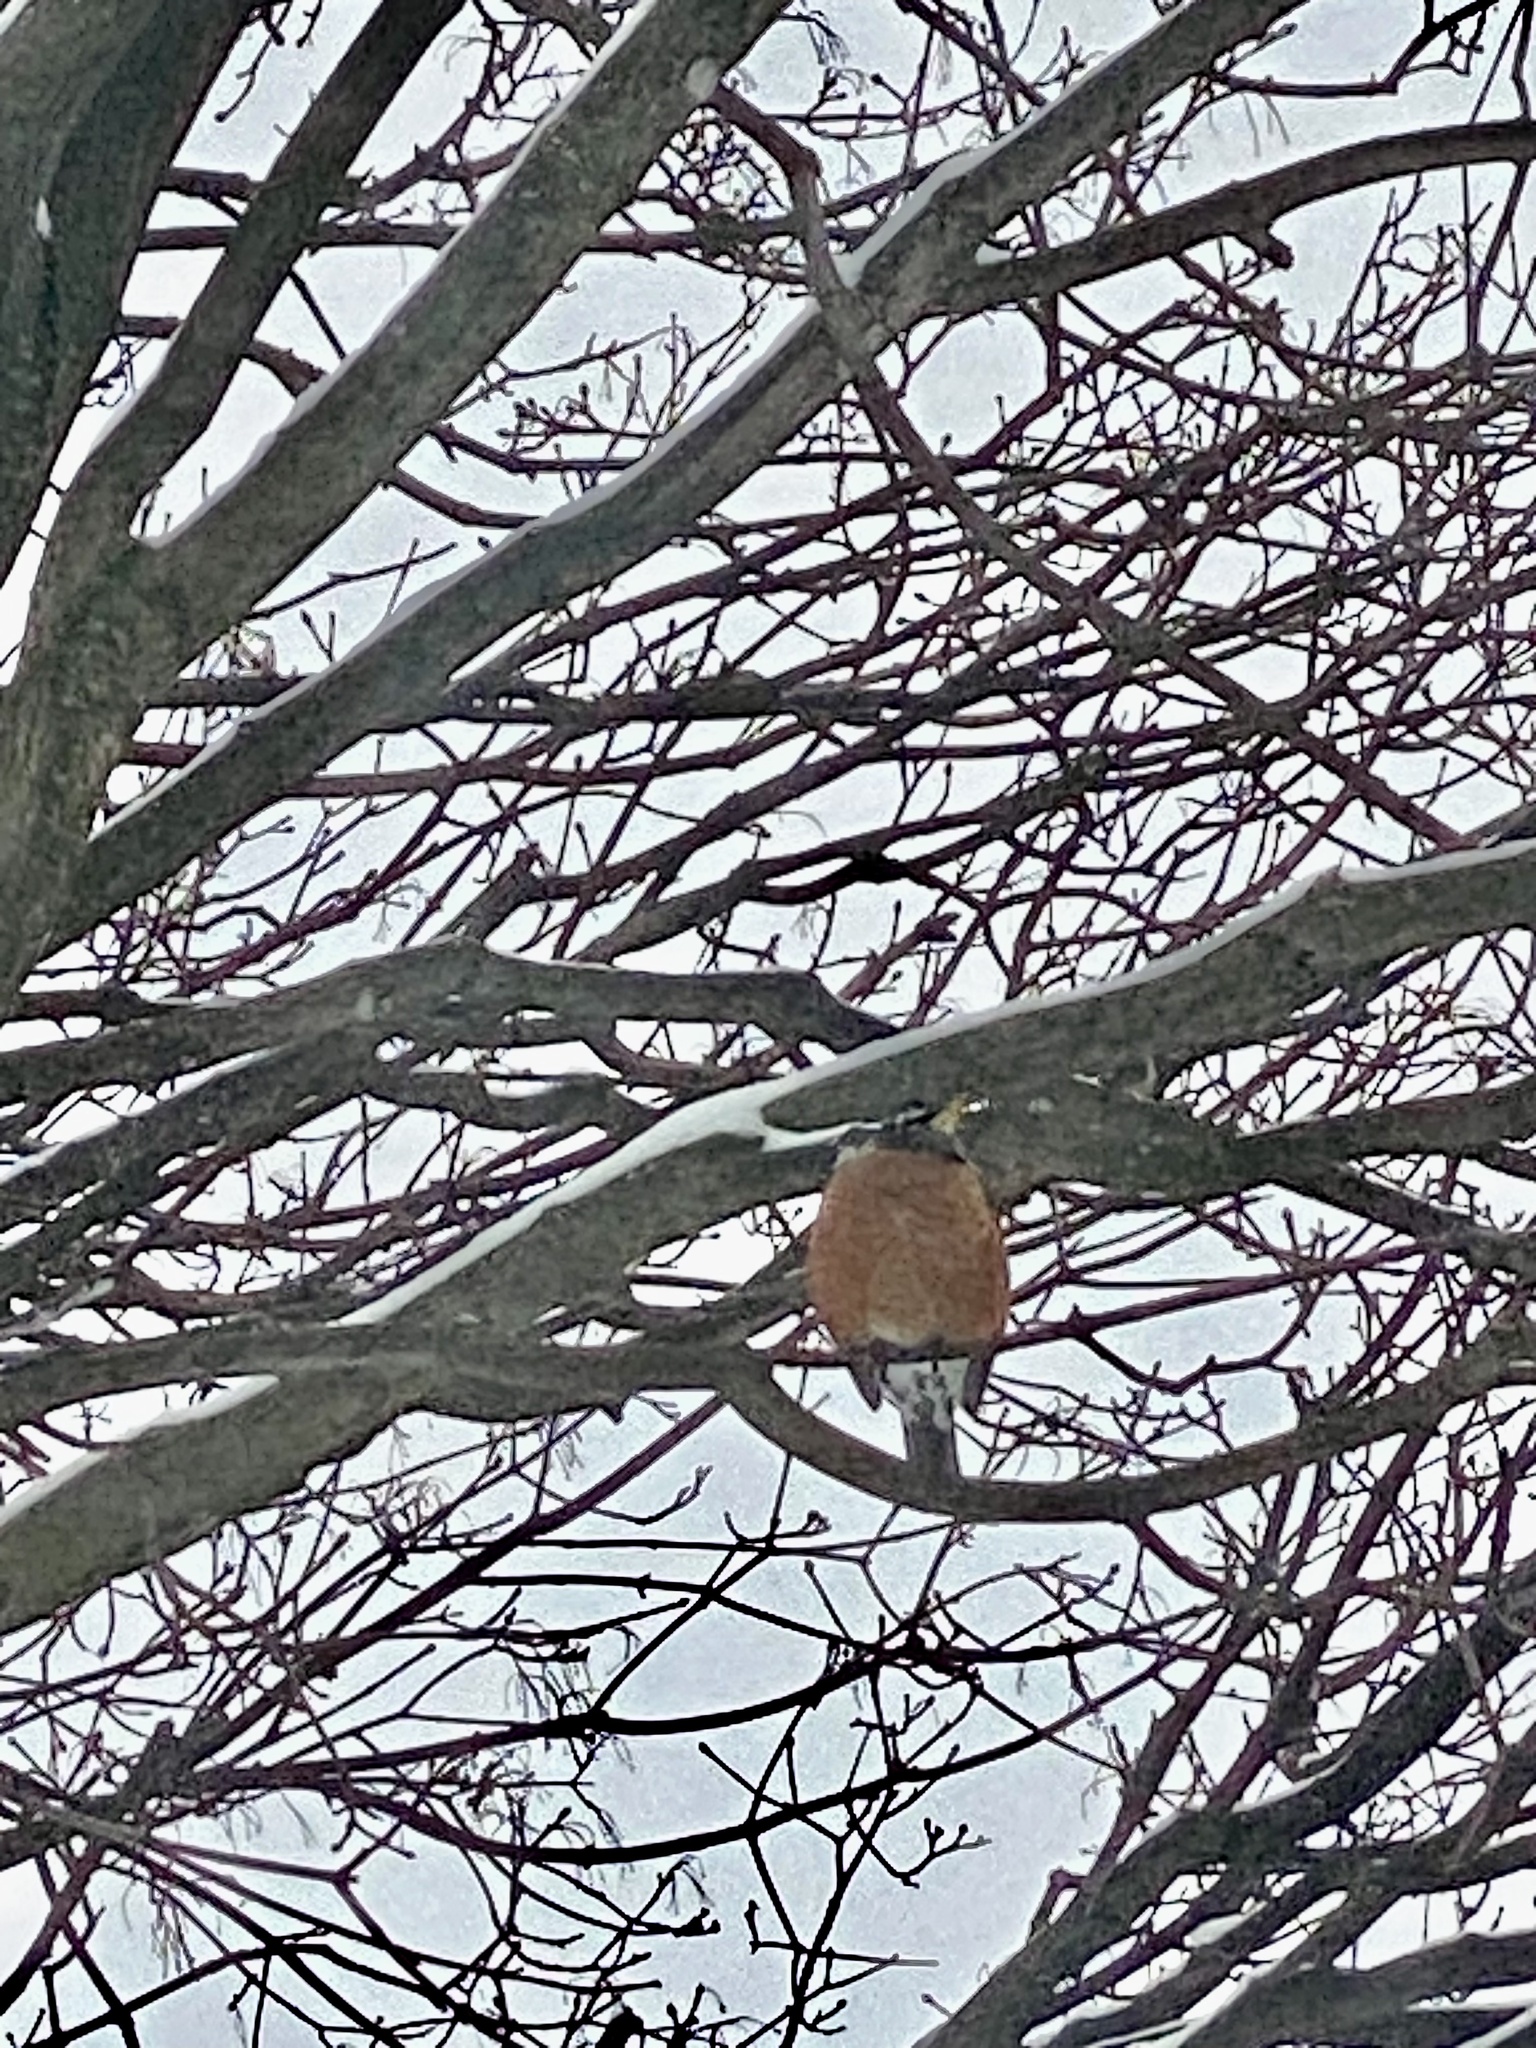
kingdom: Animalia
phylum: Chordata
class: Aves
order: Passeriformes
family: Turdidae
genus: Turdus
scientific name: Turdus migratorius
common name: American robin
